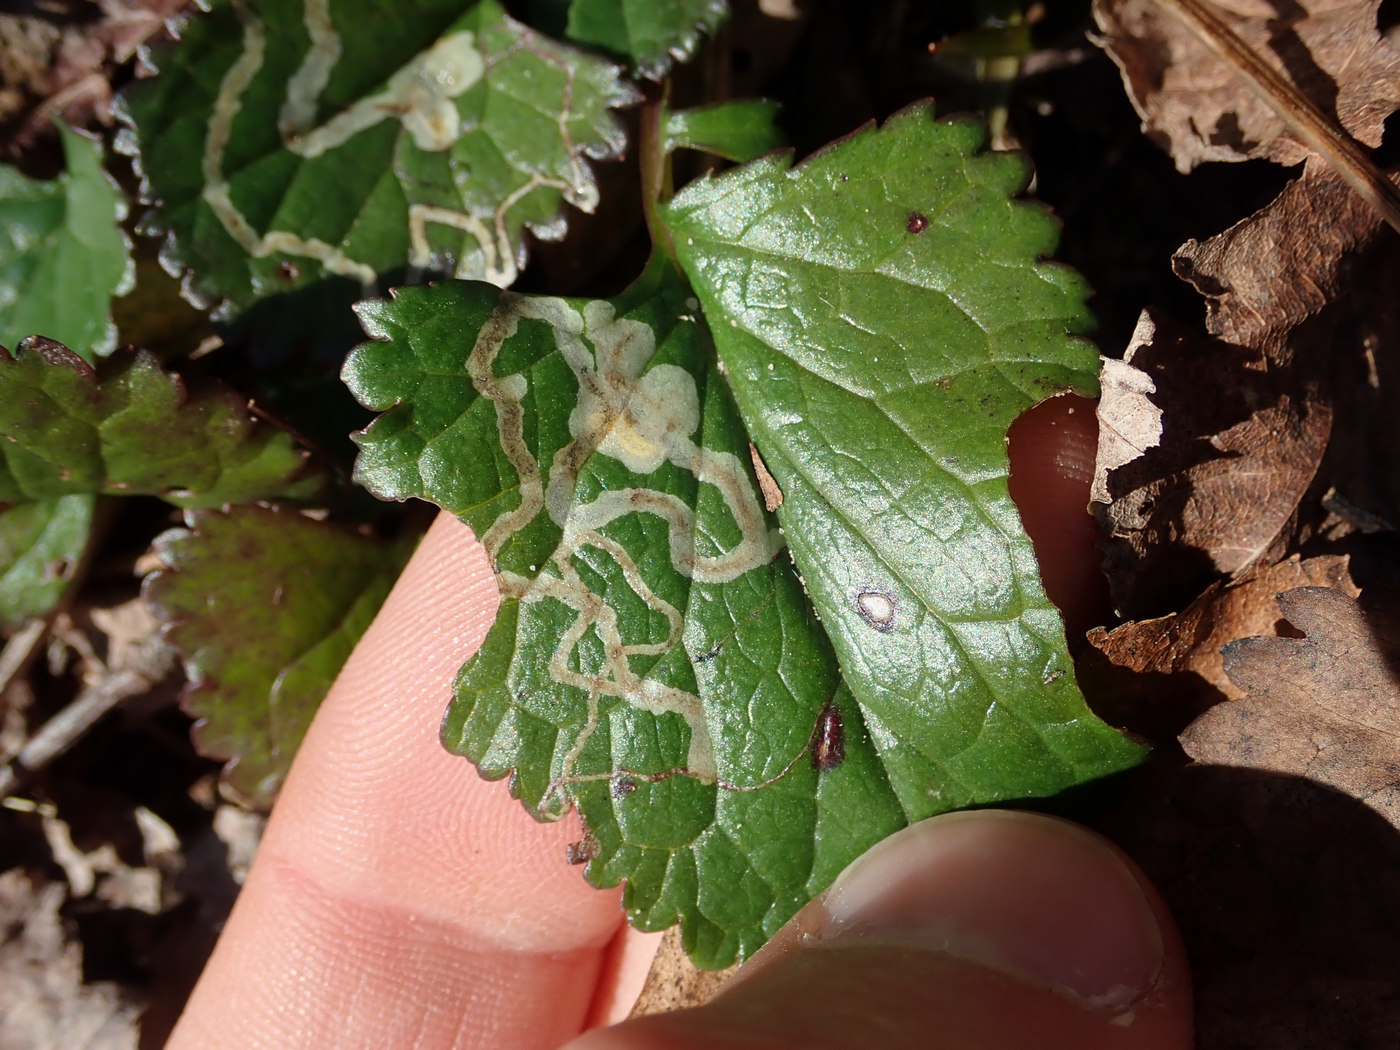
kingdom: Animalia
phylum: Arthropoda
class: Insecta
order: Lepidoptera
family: Gracillariidae
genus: Phyllocnistis
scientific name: Phyllocnistis insignis
